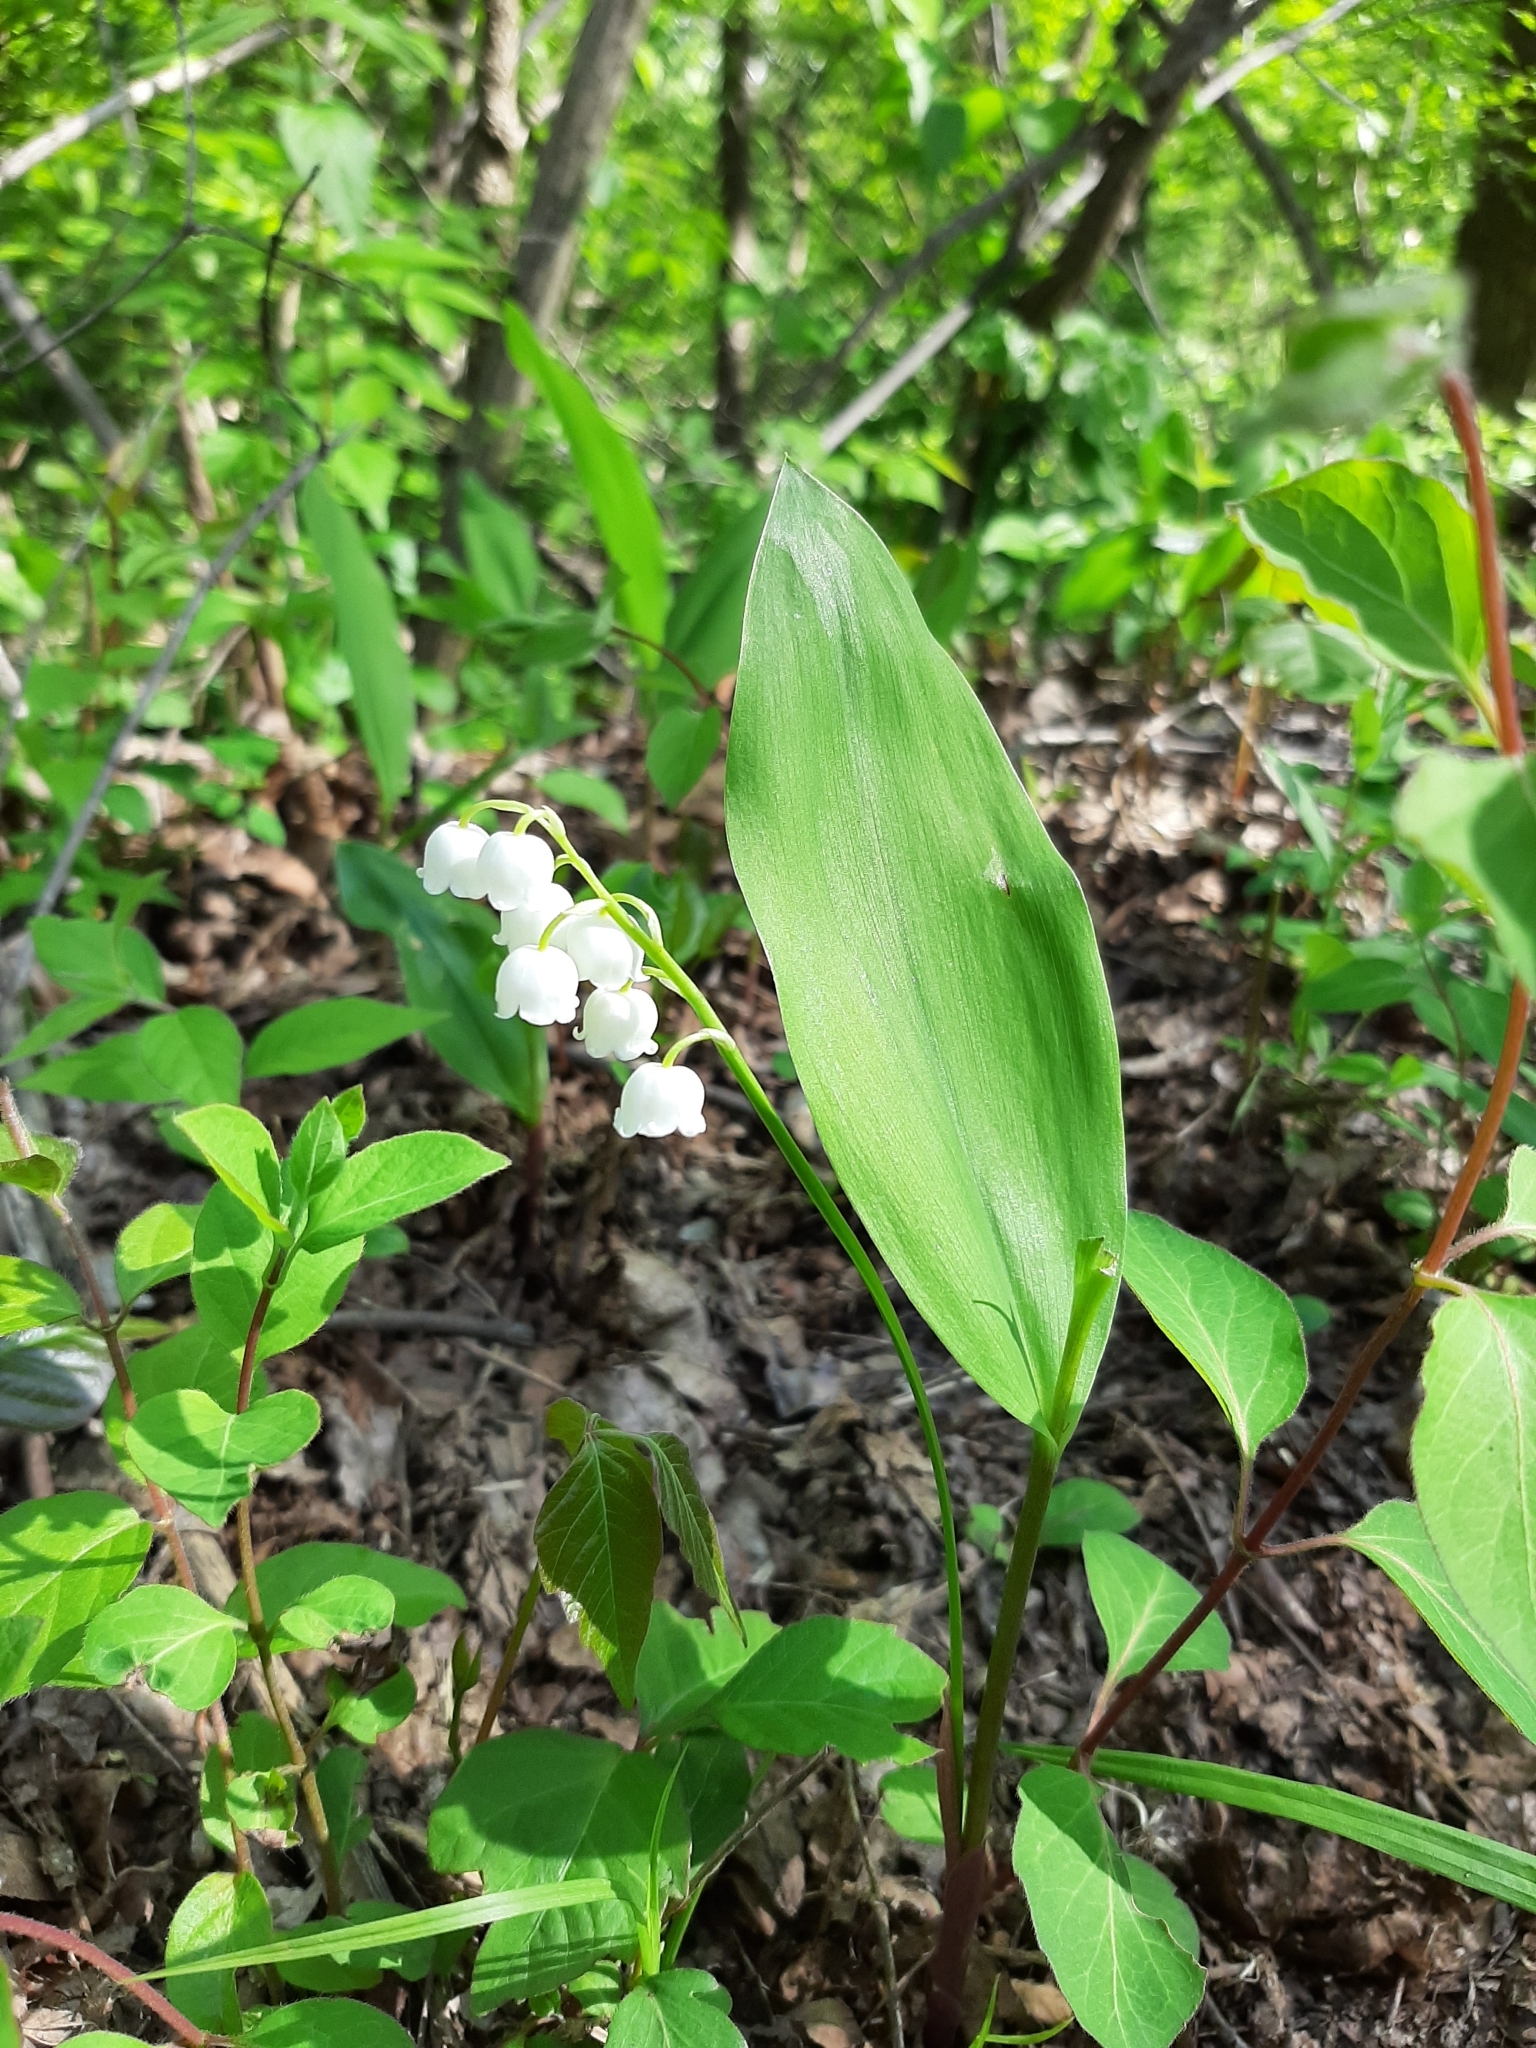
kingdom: Plantae
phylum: Tracheophyta
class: Liliopsida
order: Asparagales
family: Asparagaceae
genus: Convallaria
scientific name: Convallaria majalis
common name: Lily-of-the-valley
